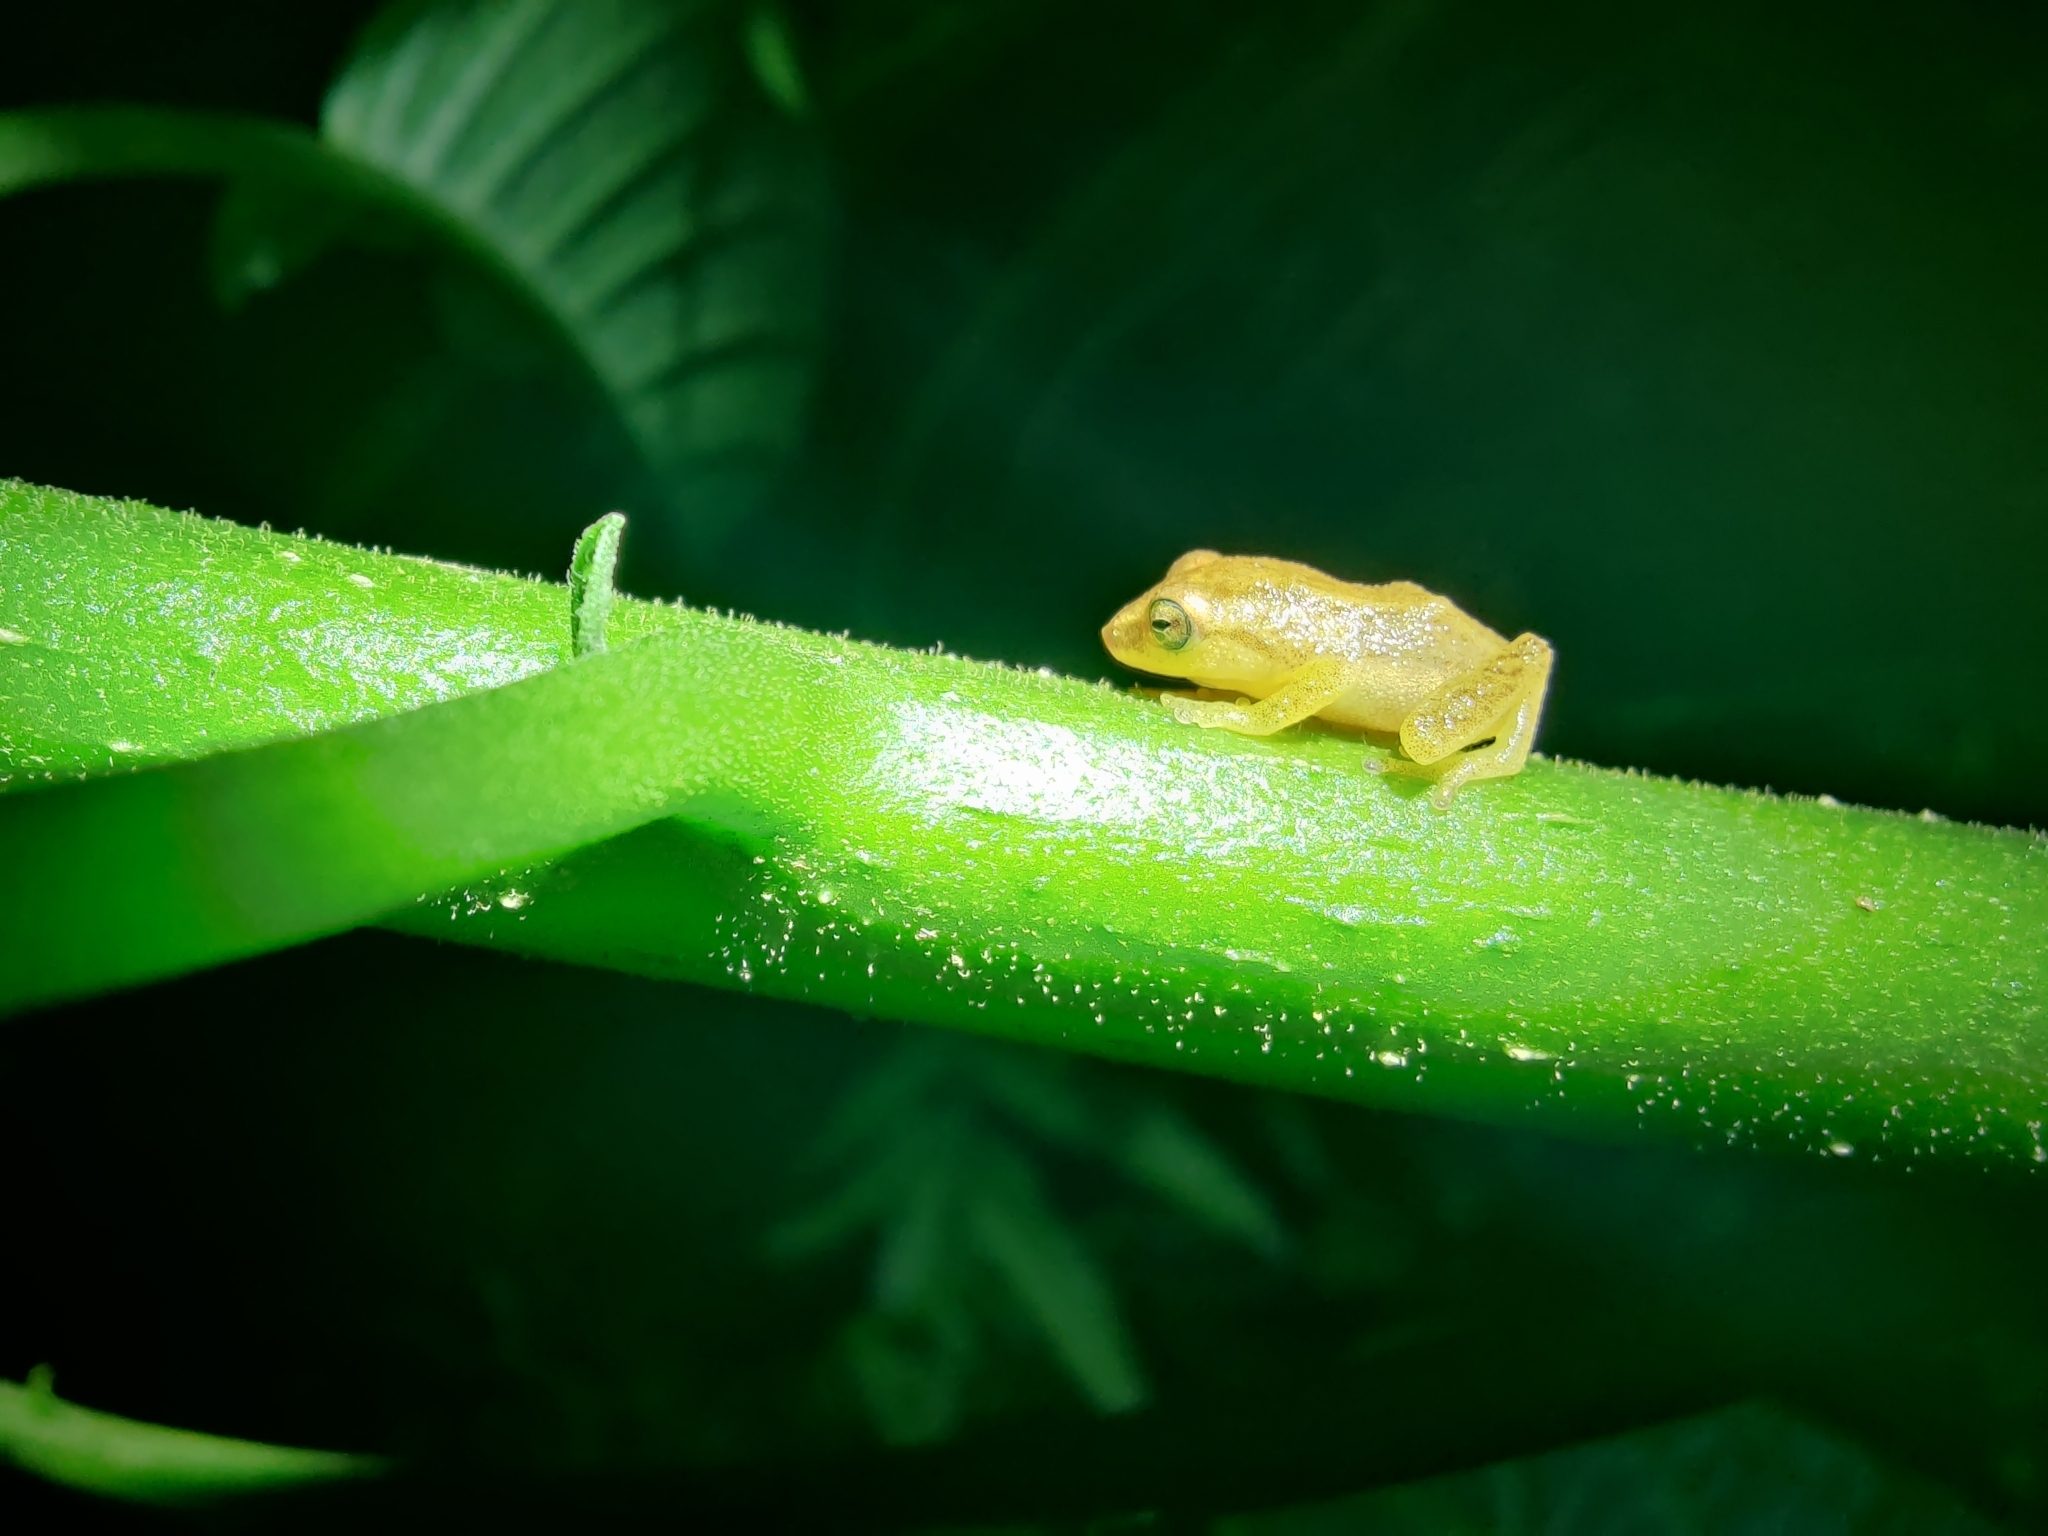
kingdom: Animalia
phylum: Chordata
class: Amphibia
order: Anura
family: Rhacophoridae
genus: Raorchestes
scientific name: Raorchestes luteolus
